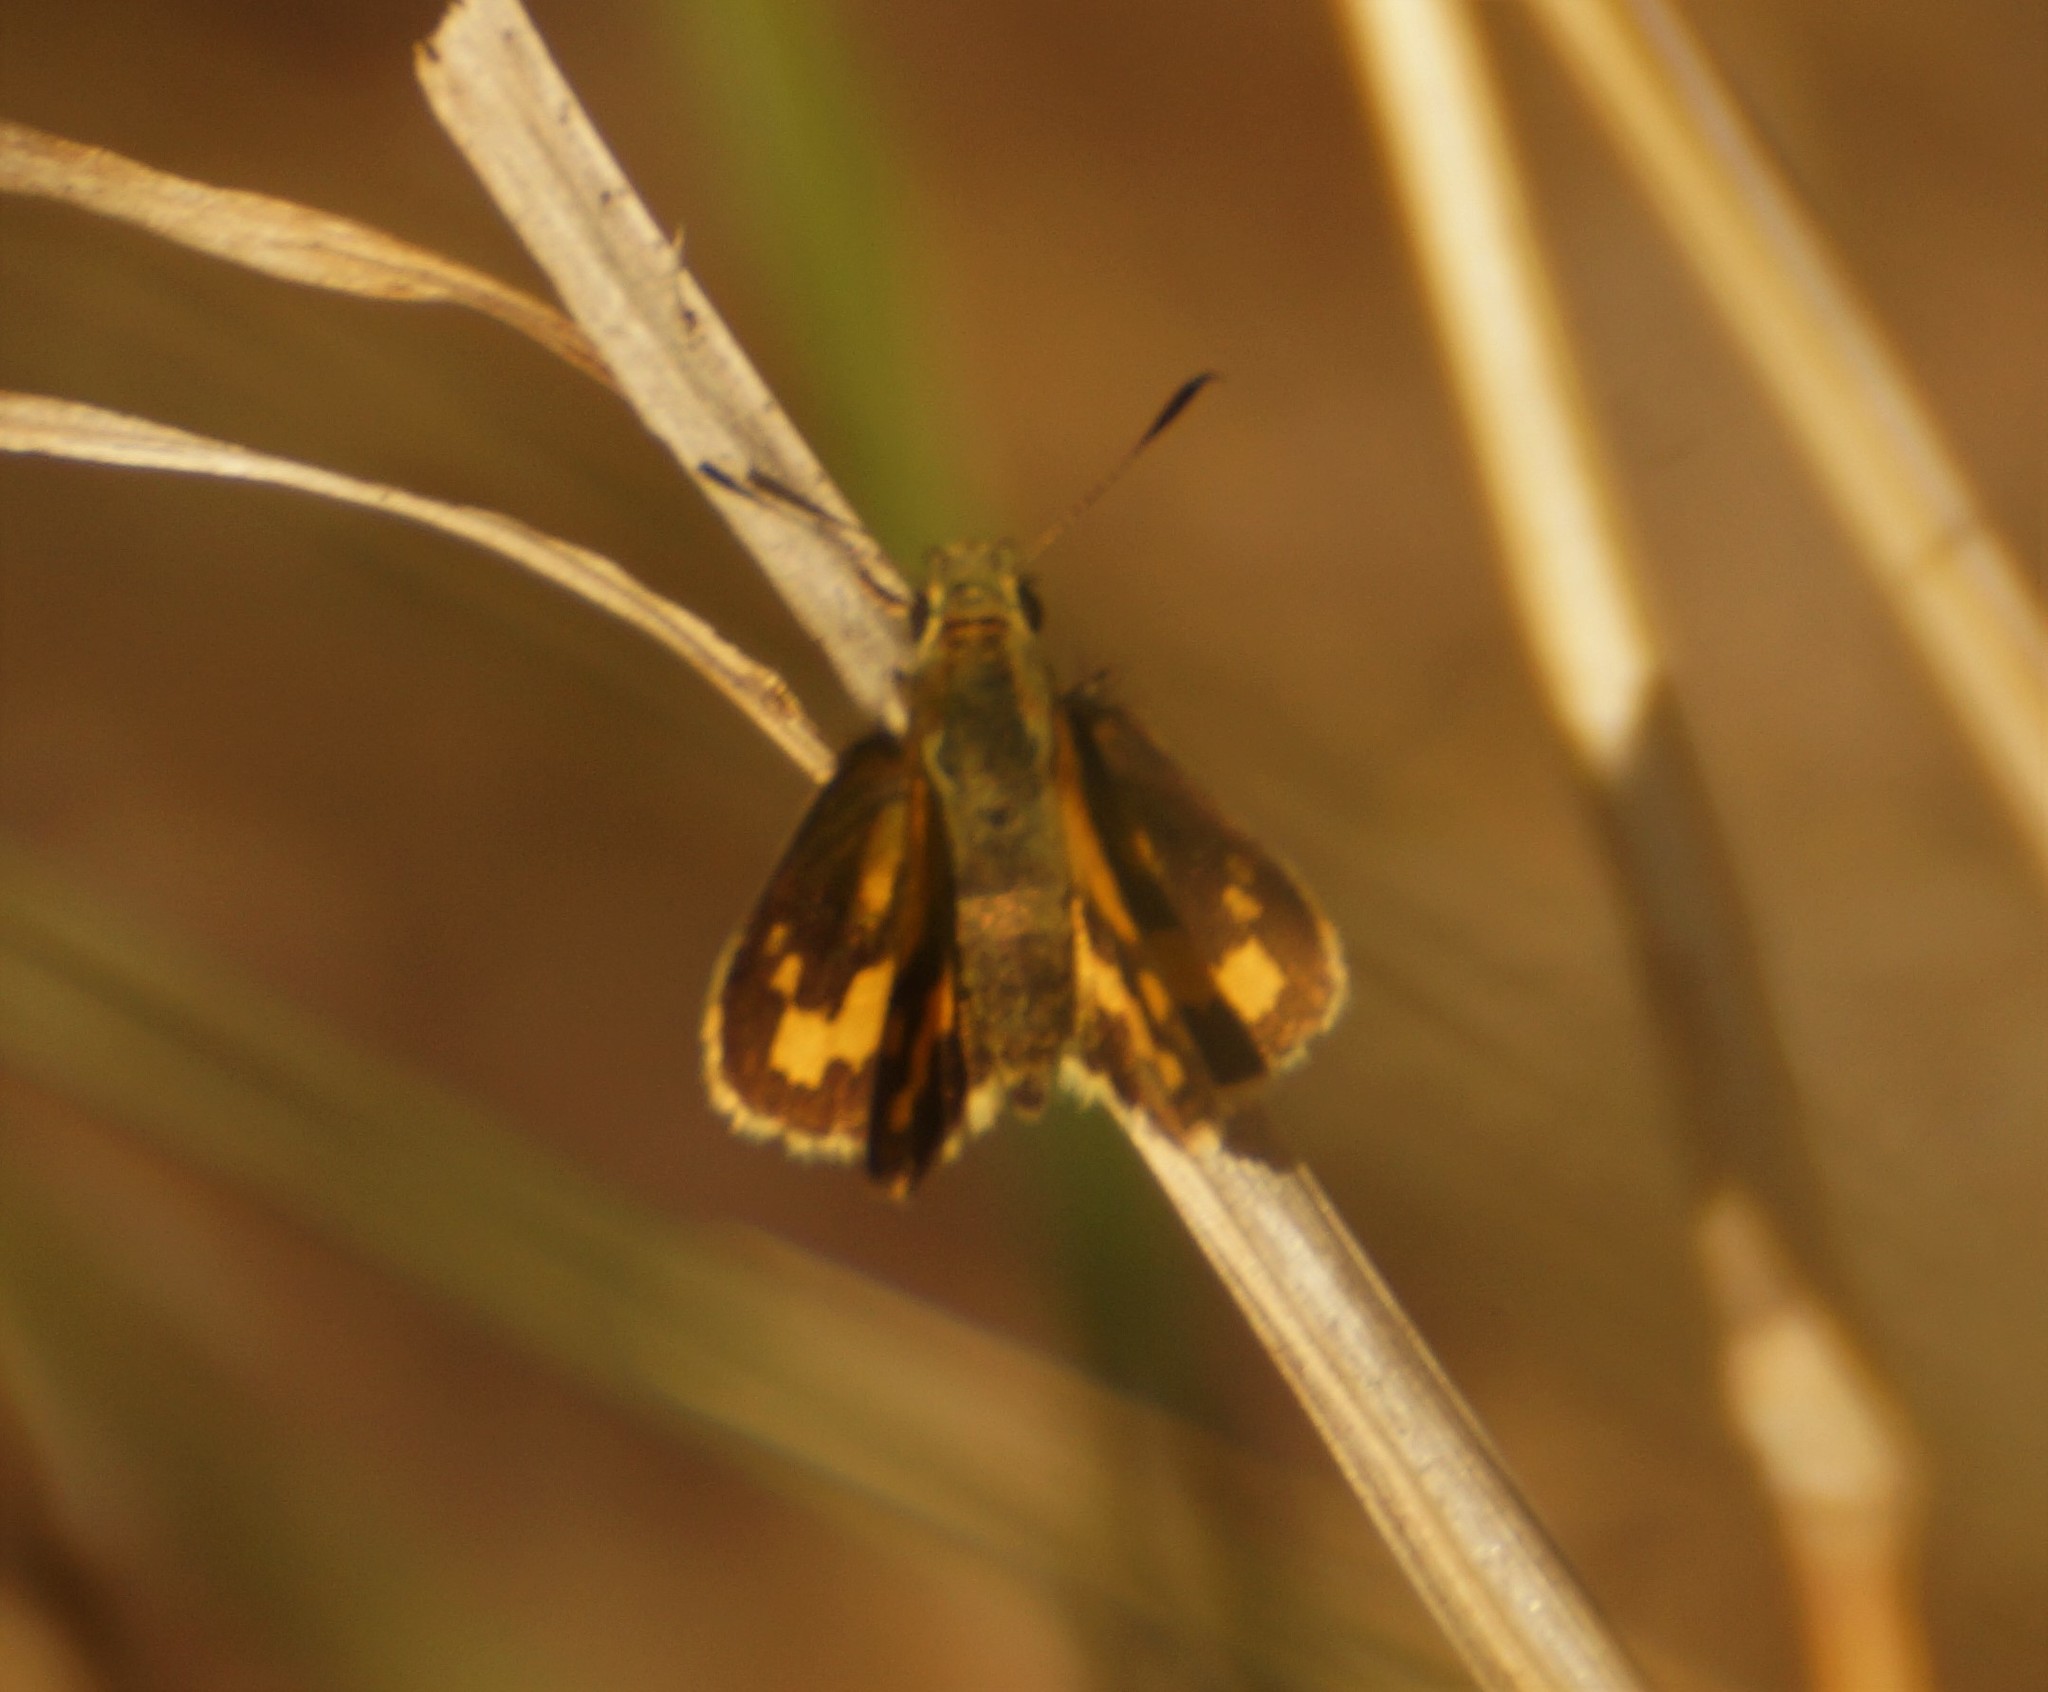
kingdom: Animalia
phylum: Arthropoda
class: Insecta
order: Lepidoptera
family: Hesperiidae
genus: Ocybadistes
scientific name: Ocybadistes walkeri
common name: Yellow-banded dart
